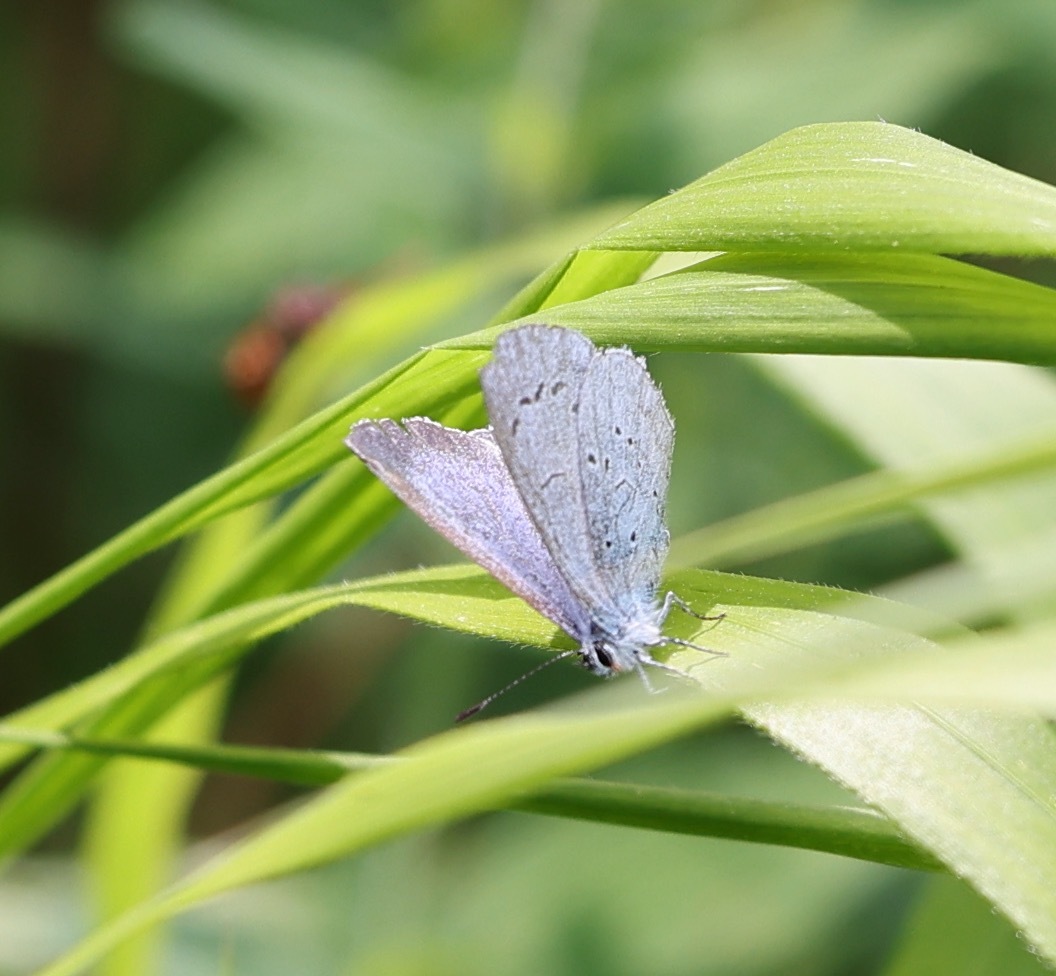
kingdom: Animalia
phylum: Arthropoda
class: Insecta
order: Lepidoptera
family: Lycaenidae
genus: Celastrina
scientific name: Celastrina argiolus
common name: Holly blue
